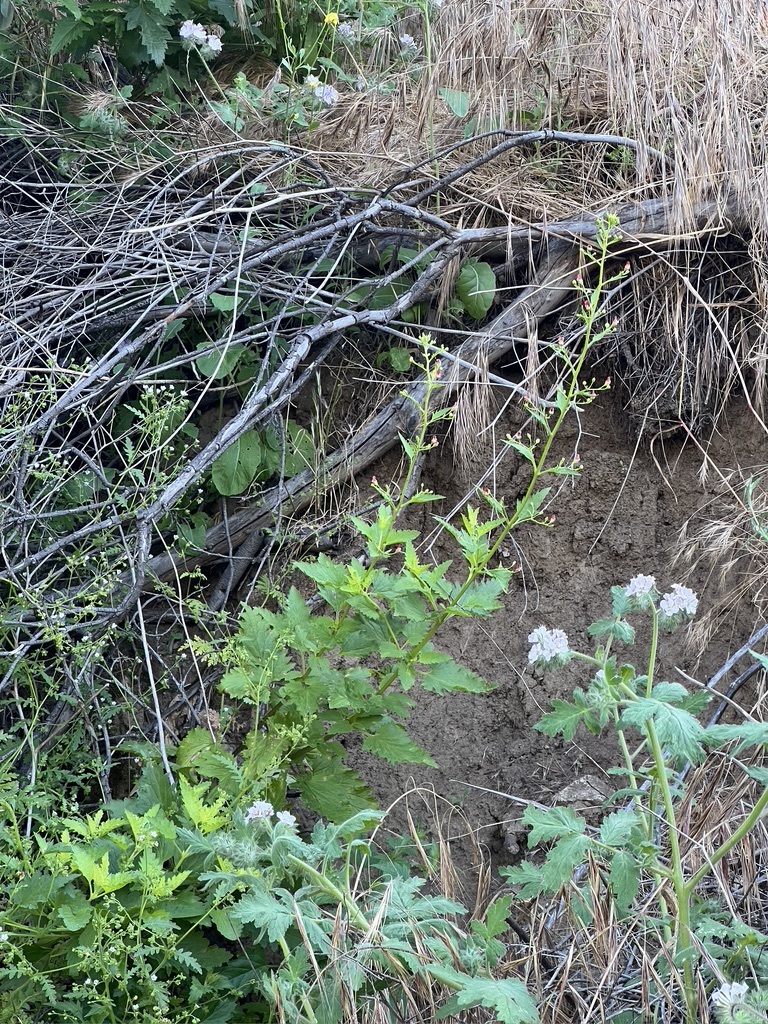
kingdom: Plantae
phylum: Tracheophyta
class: Magnoliopsida
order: Lamiales
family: Scrophulariaceae
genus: Scrophularia
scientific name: Scrophularia californica
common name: California figwort
